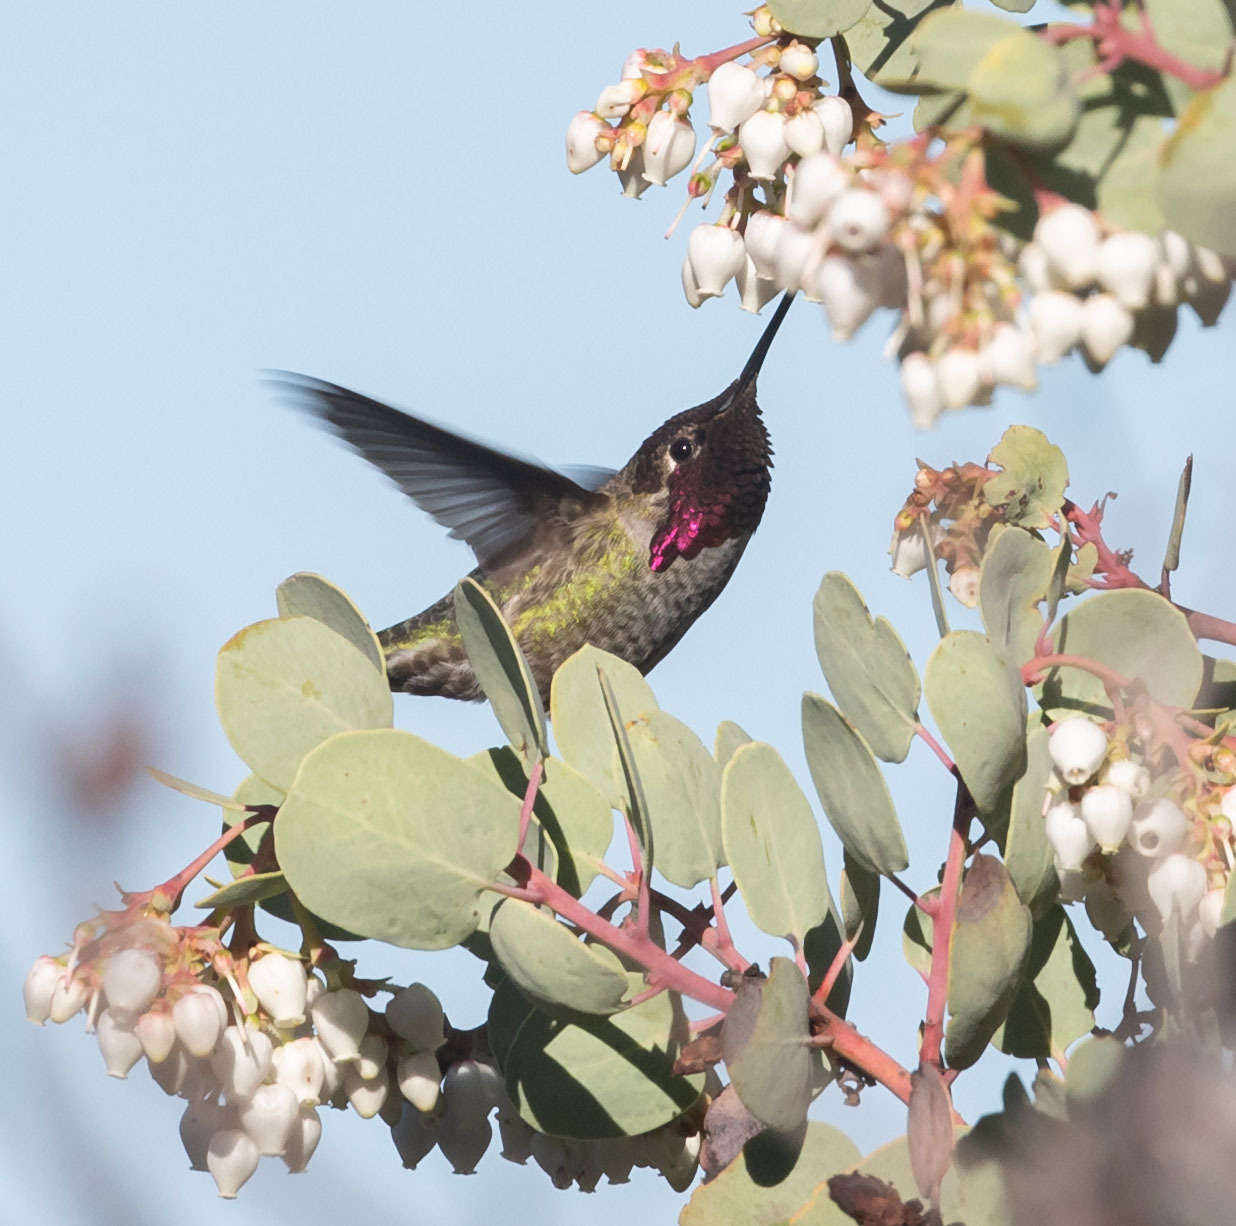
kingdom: Animalia
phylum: Chordata
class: Aves
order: Apodiformes
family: Trochilidae
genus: Calypte
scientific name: Calypte anna
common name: Anna's hummingbird
